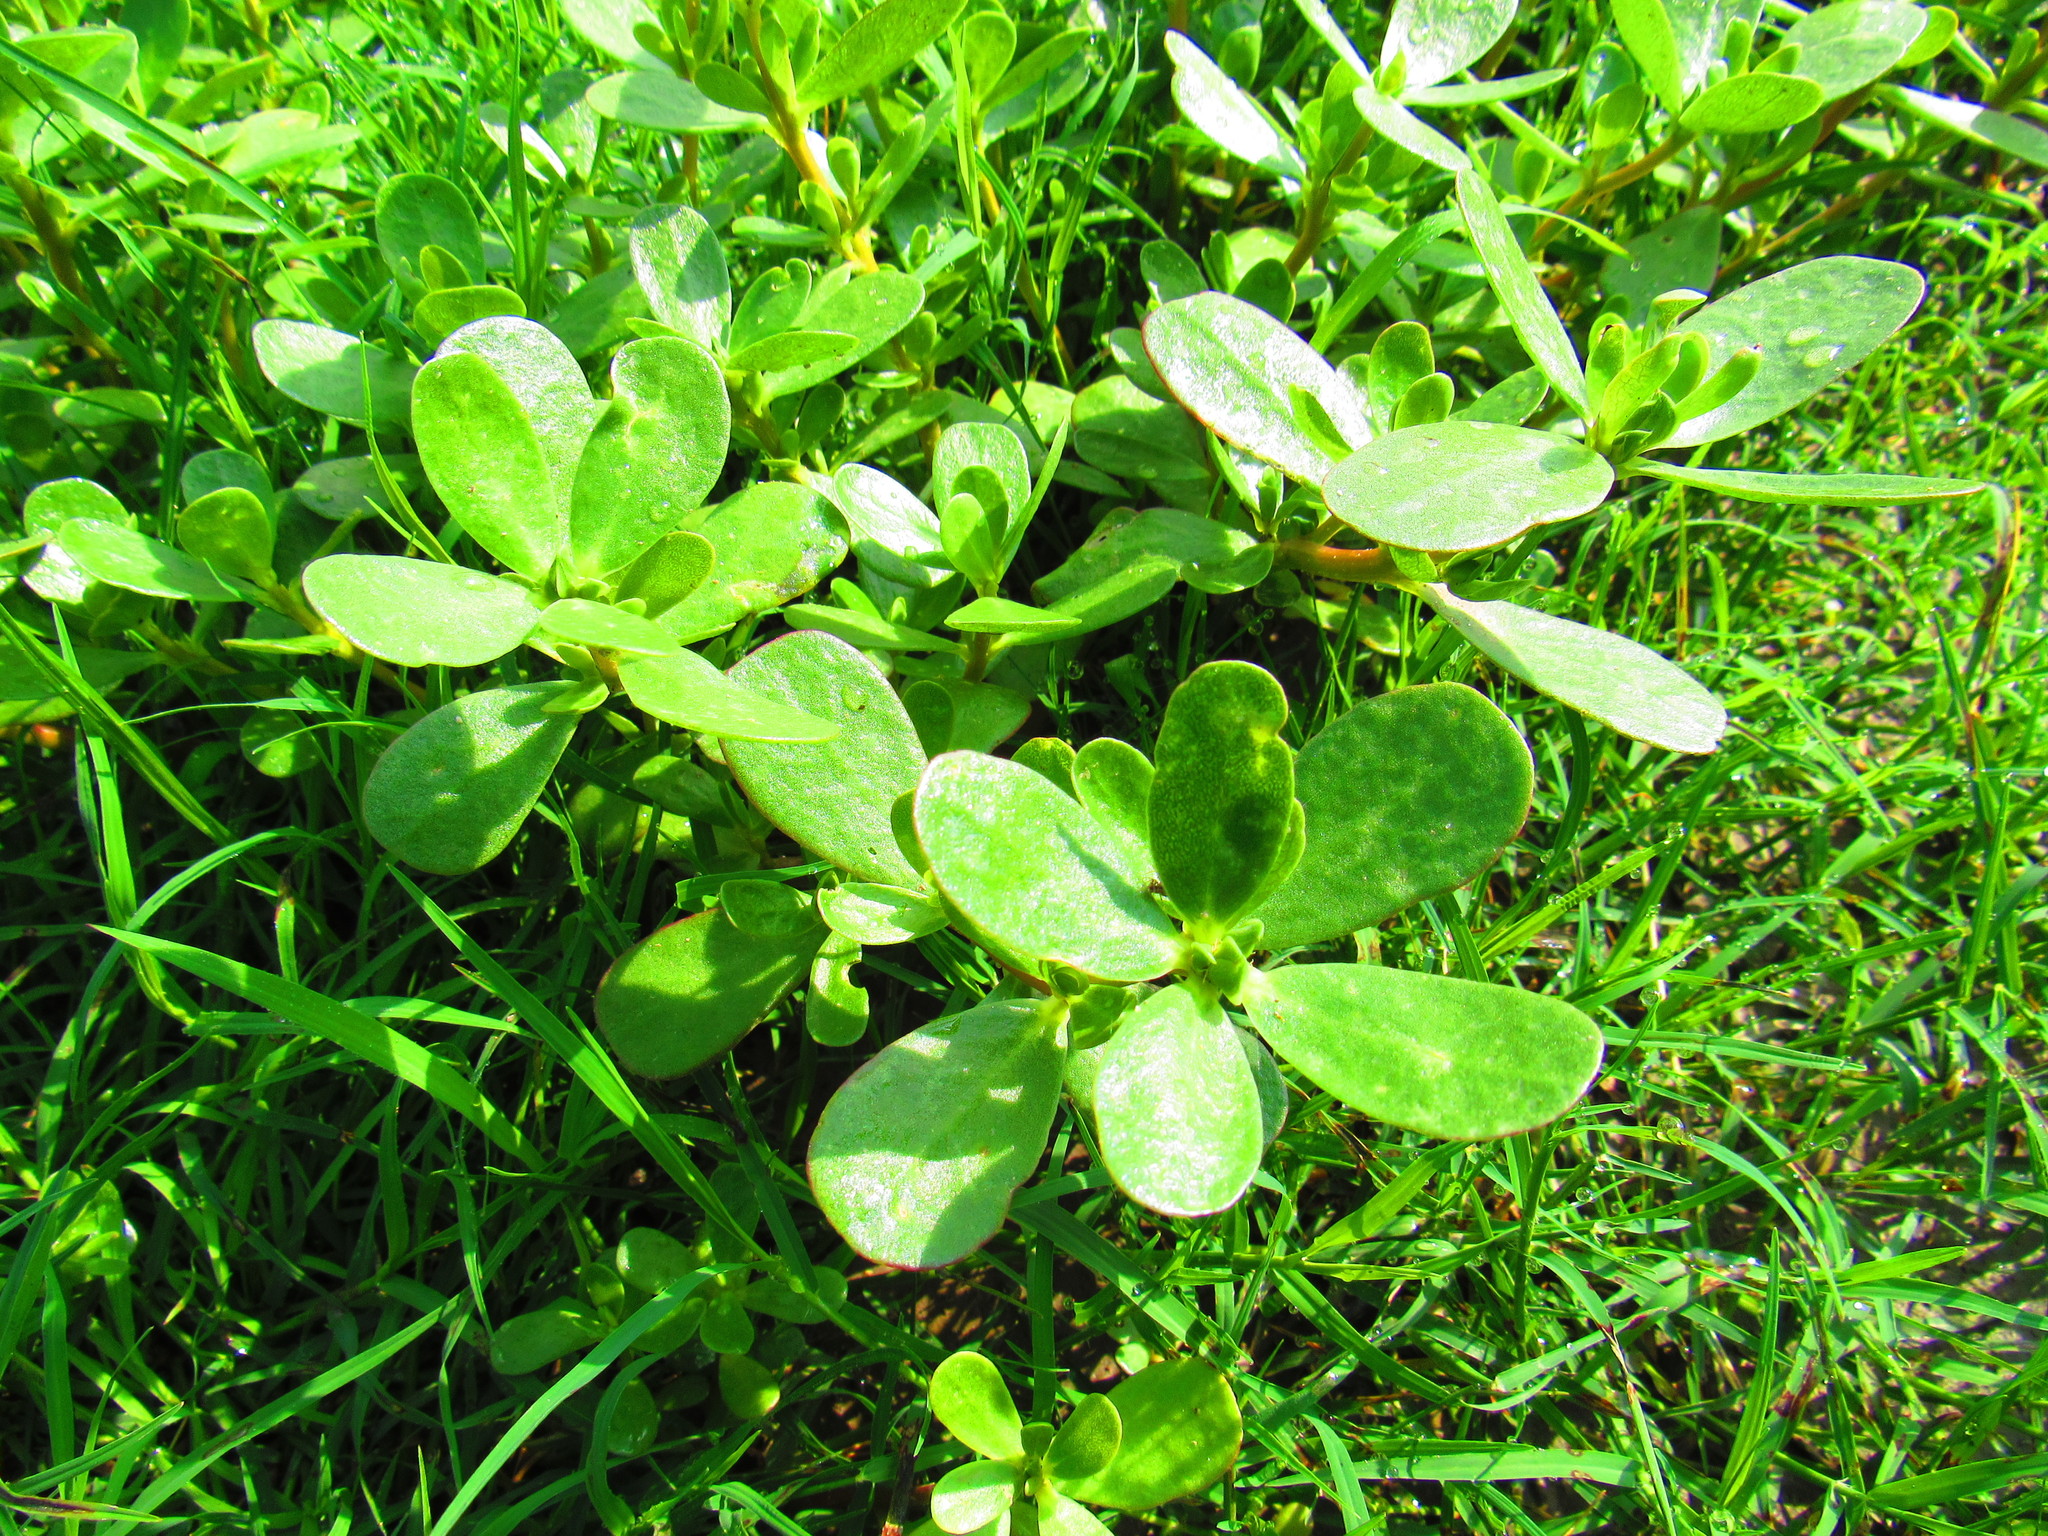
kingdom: Plantae
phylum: Tracheophyta
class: Magnoliopsida
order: Caryophyllales
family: Portulacaceae
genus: Portulaca
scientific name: Portulaca oleracea
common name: Common purslane
